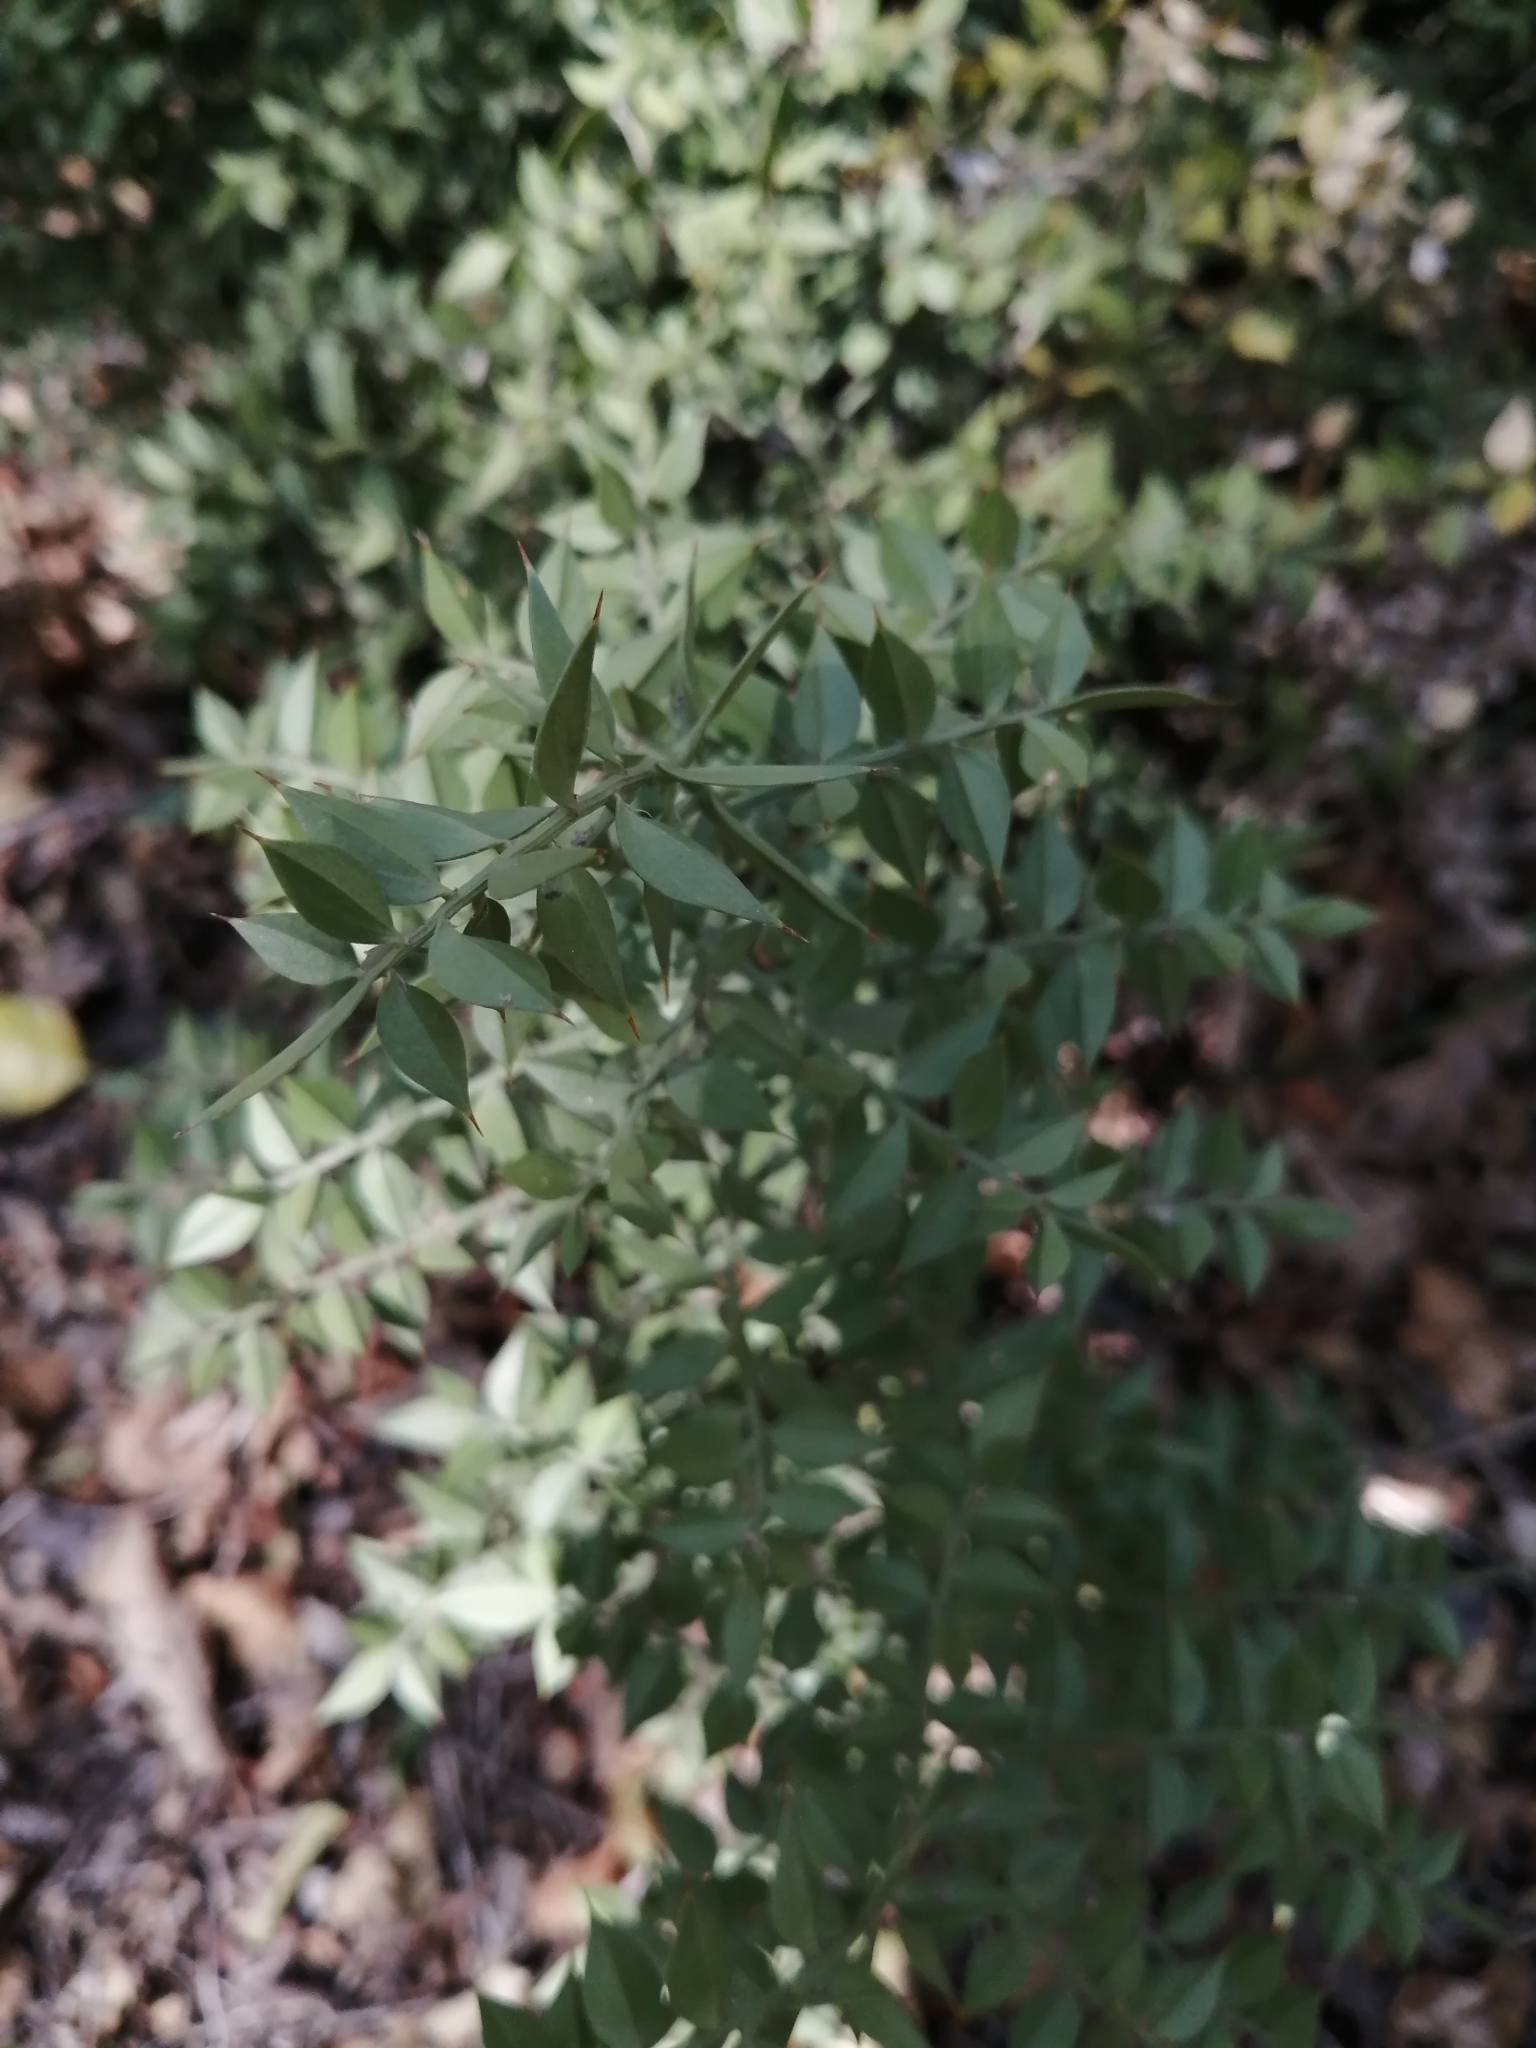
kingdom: Plantae
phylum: Tracheophyta
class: Liliopsida
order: Asparagales
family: Asparagaceae
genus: Ruscus
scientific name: Ruscus aculeatus
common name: Butcher's-broom
